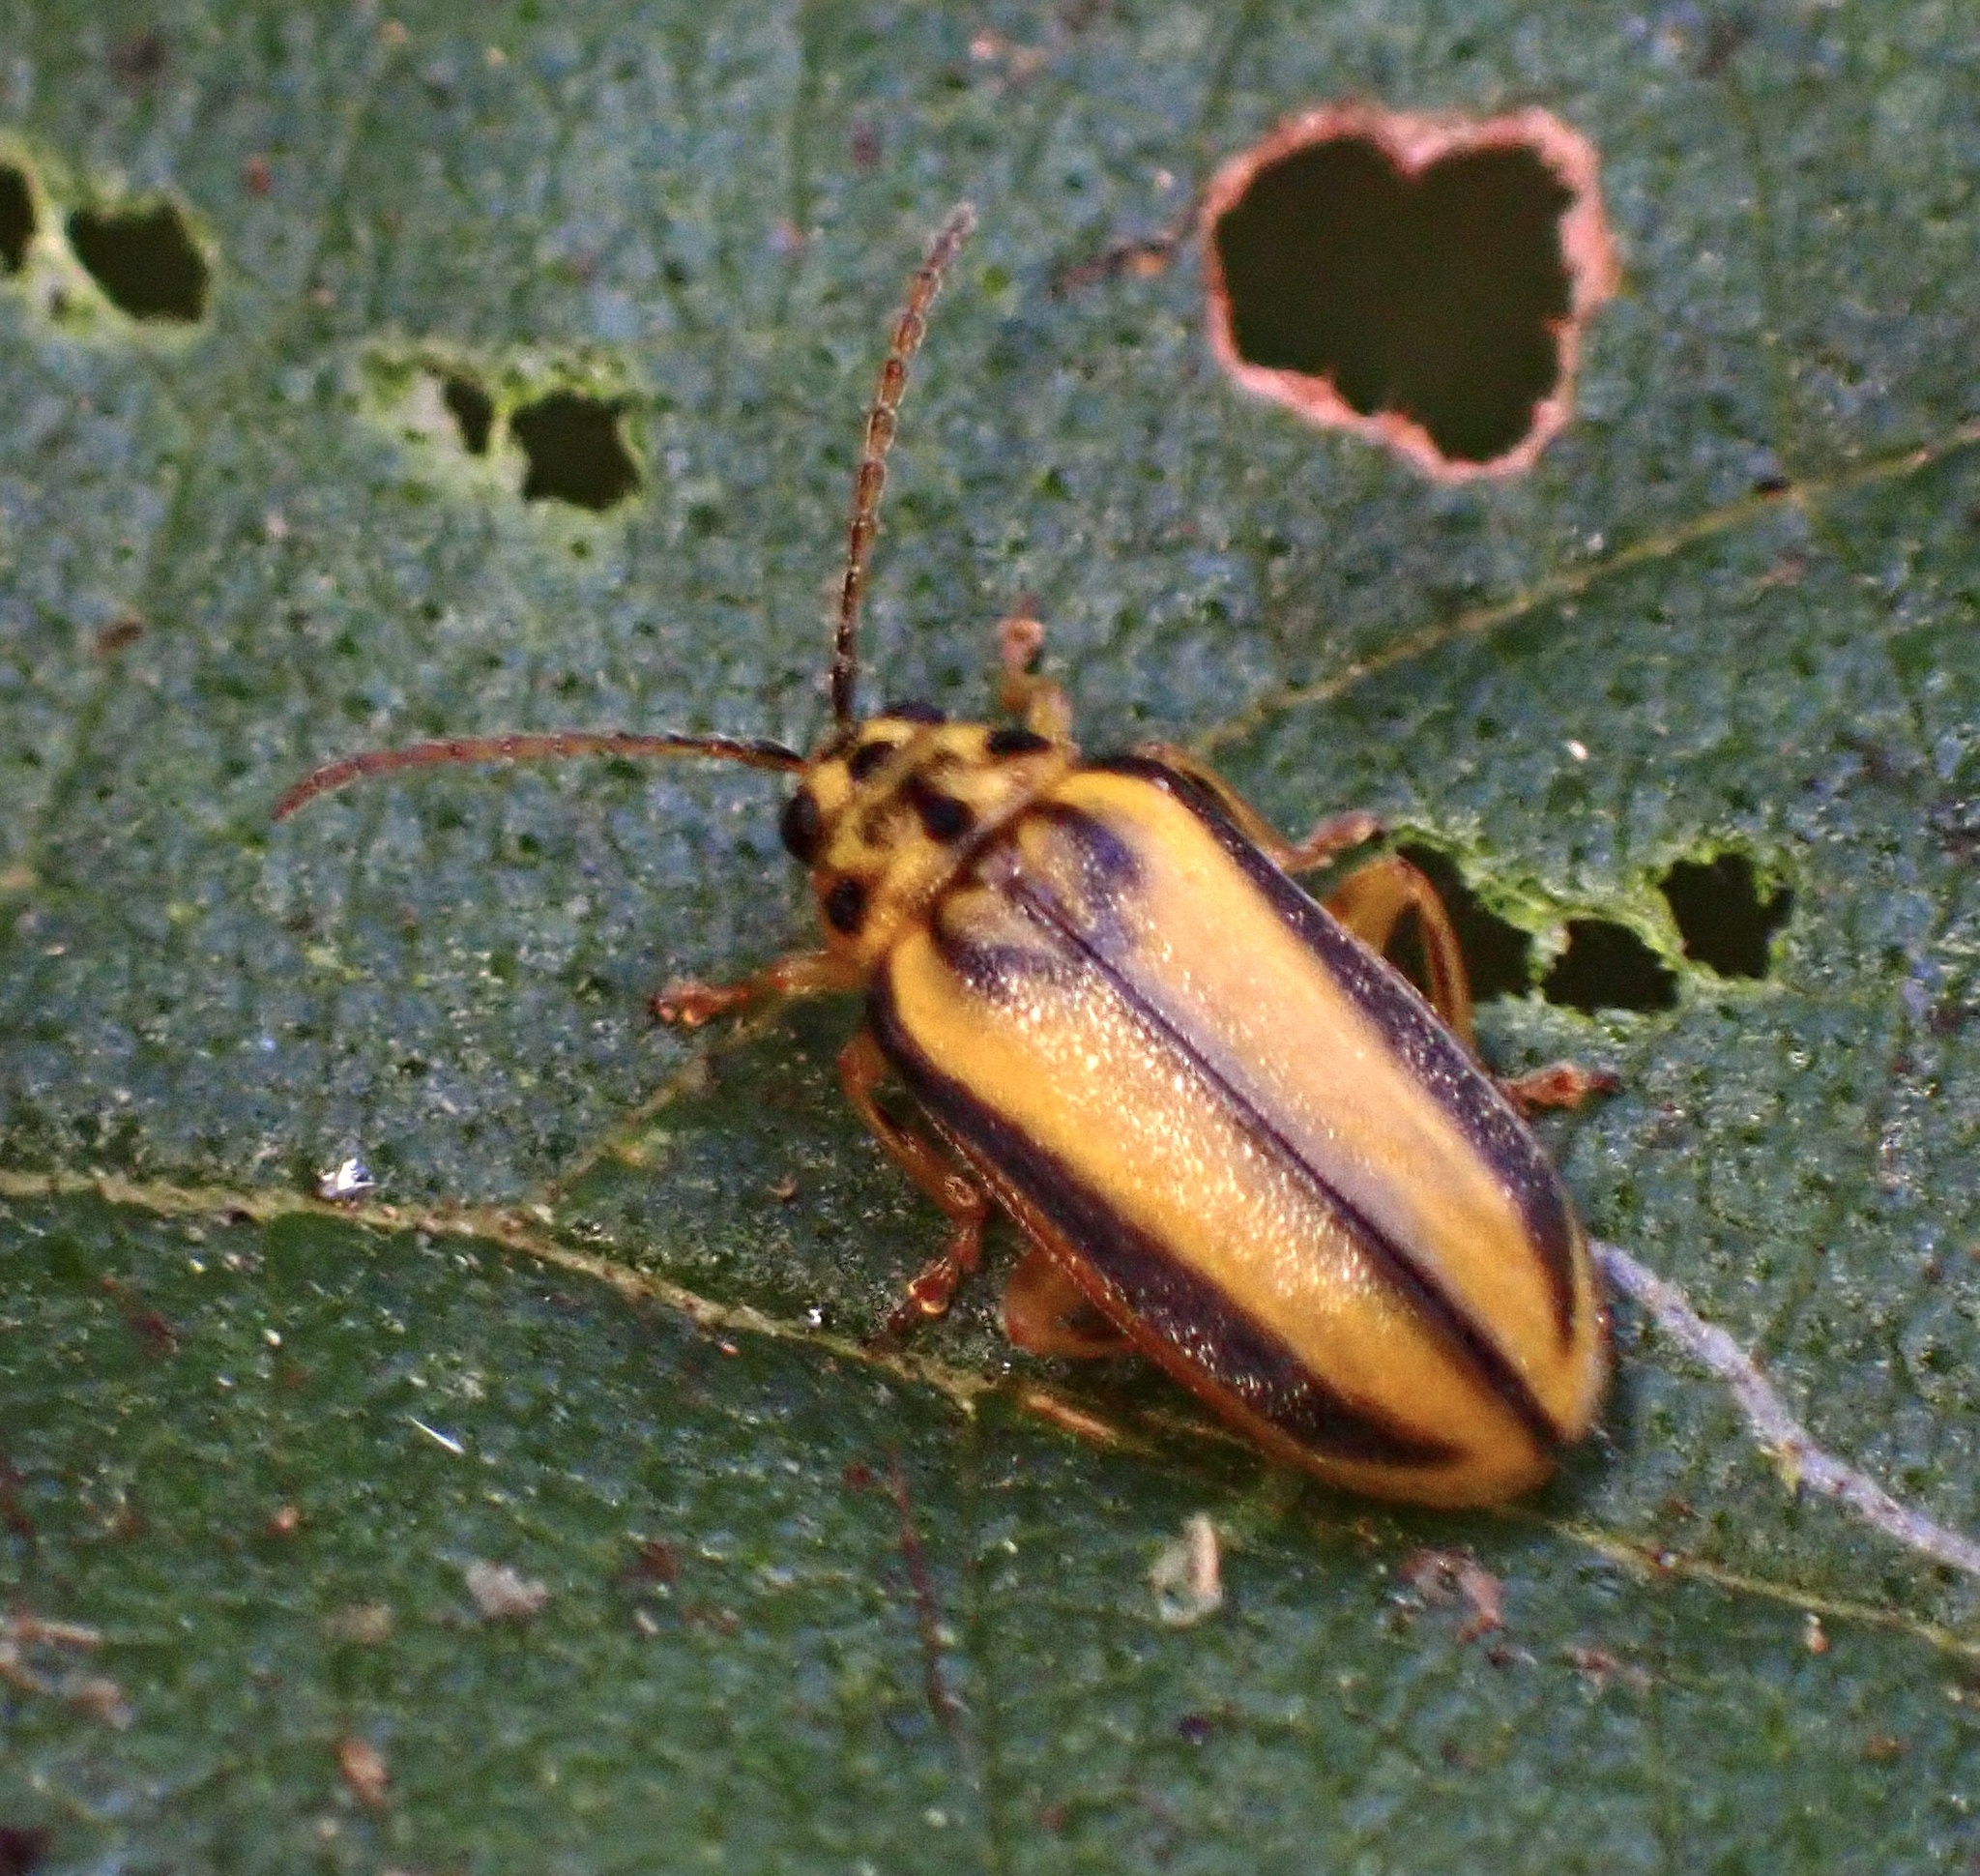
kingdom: Animalia
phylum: Arthropoda
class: Insecta
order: Coleoptera
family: Chrysomelidae
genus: Xanthogaleruca
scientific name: Xanthogaleruca luteola
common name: Elm leaf beetle
